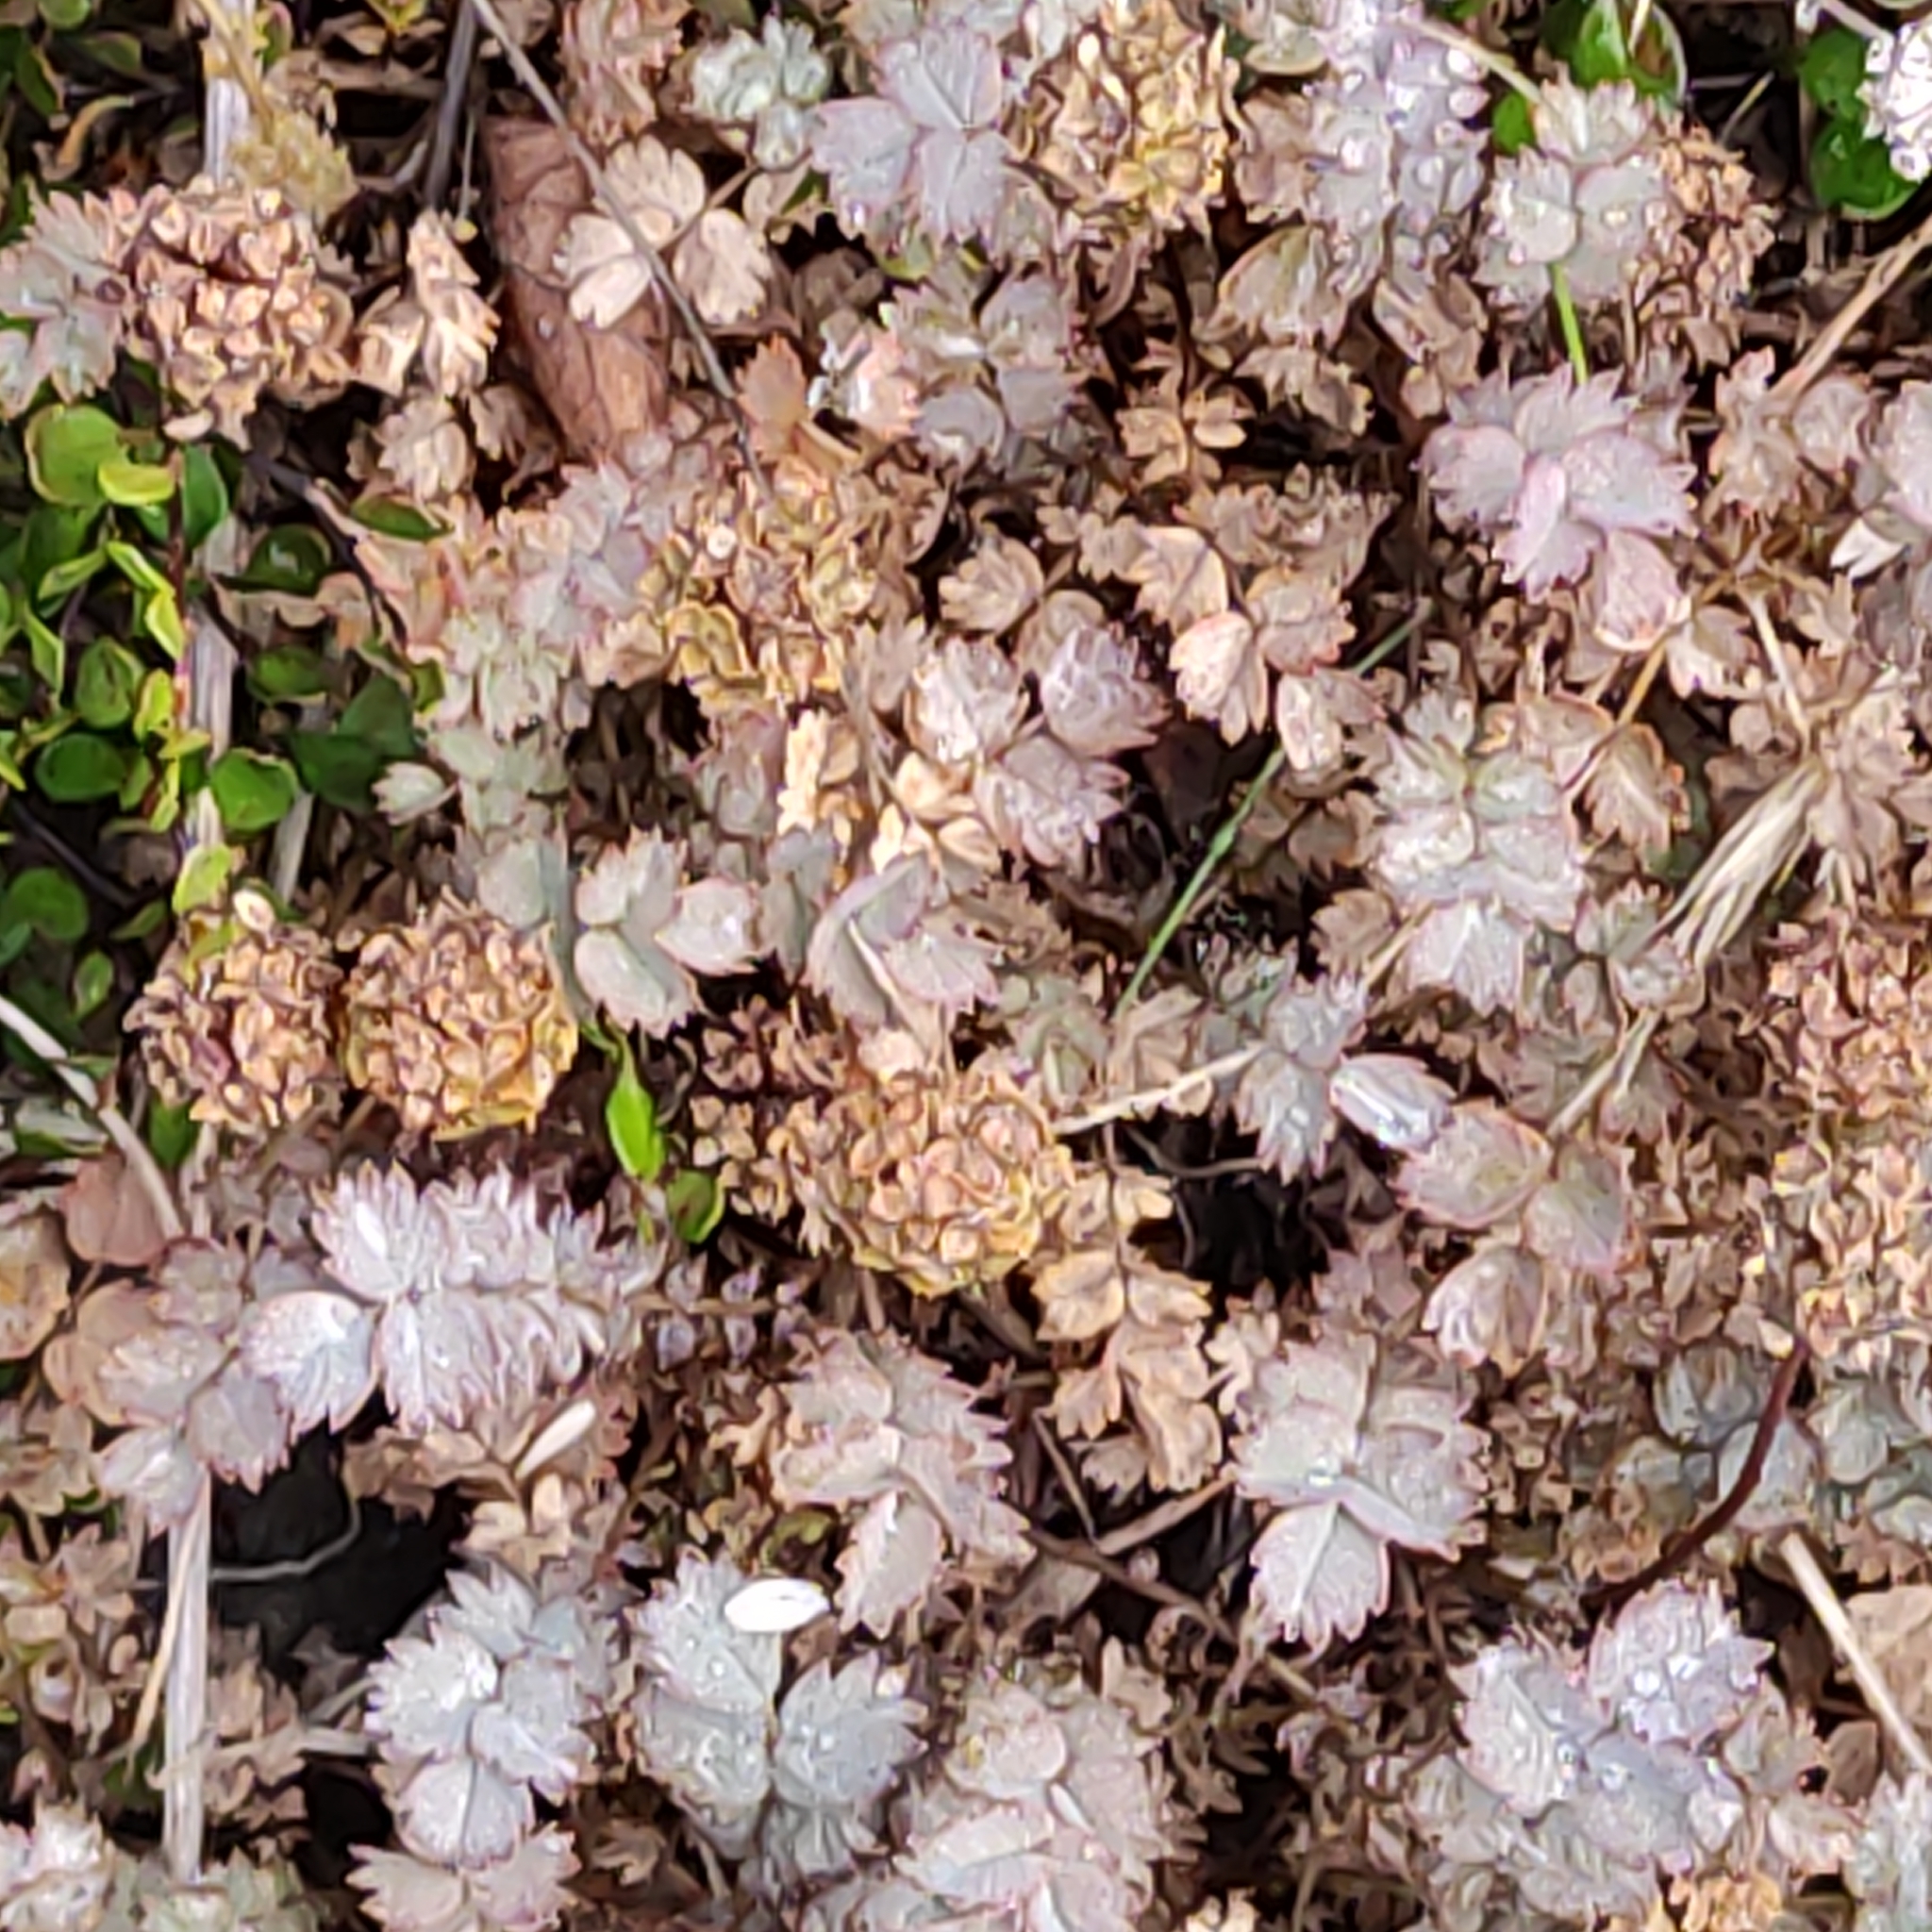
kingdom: Plantae
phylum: Tracheophyta
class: Magnoliopsida
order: Rosales
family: Rosaceae
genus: Acaena
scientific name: Acaena inermis
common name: Spineless acaena
